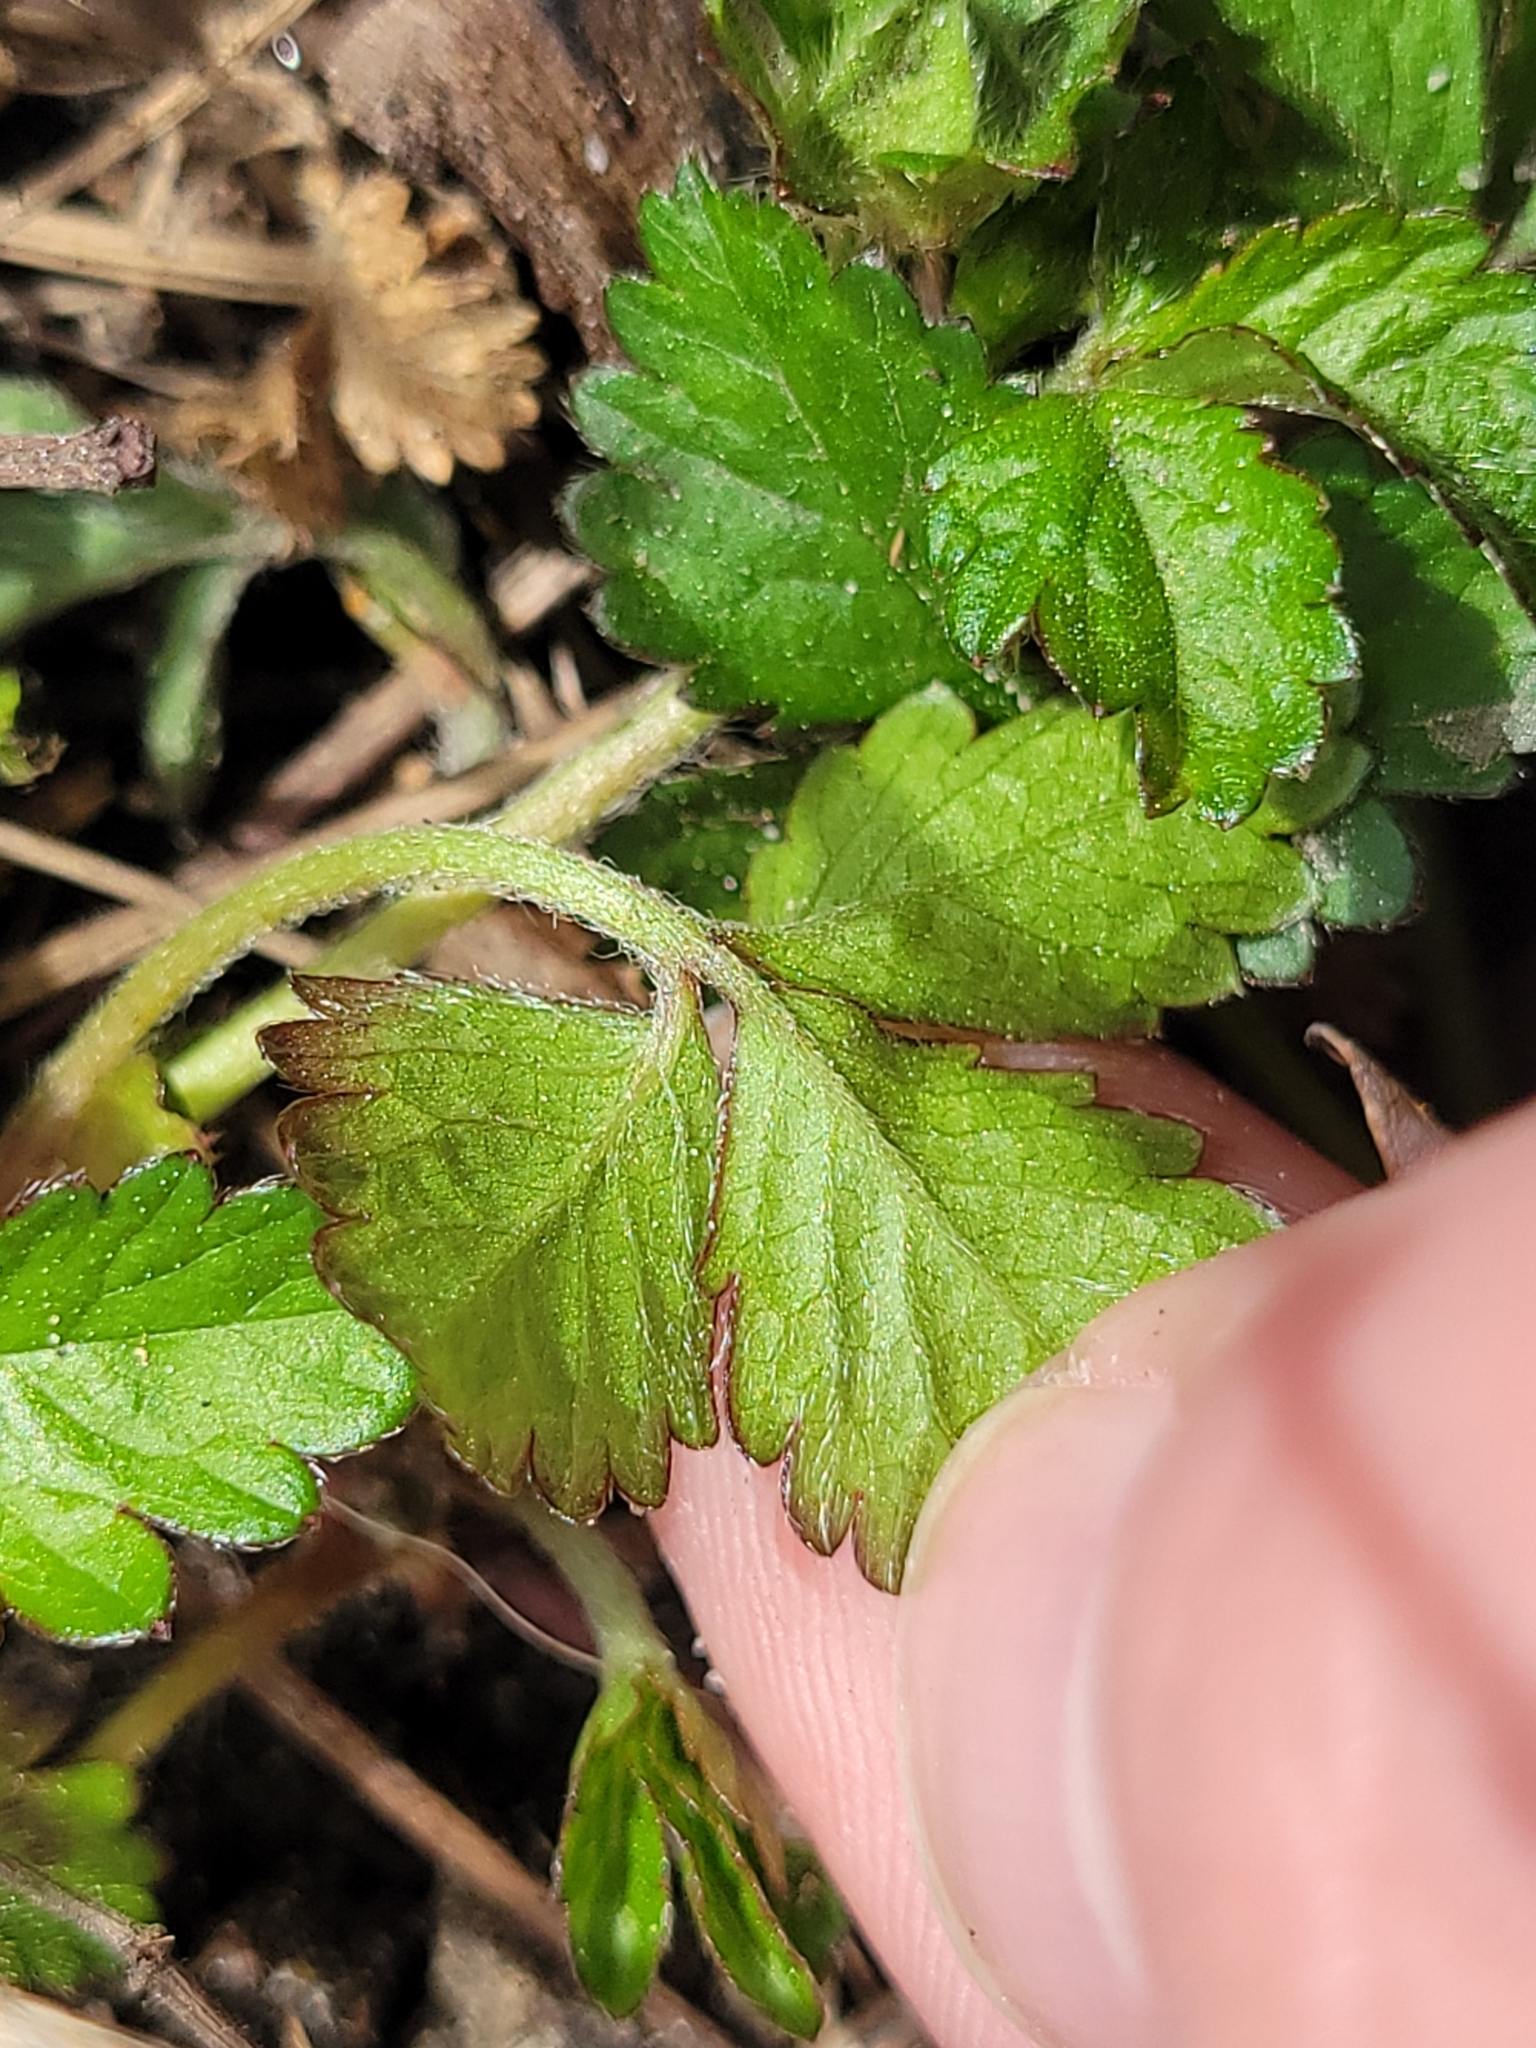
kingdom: Plantae
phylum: Tracheophyta
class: Magnoliopsida
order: Rosales
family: Rosaceae
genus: Potentilla
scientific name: Potentilla indica
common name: Yellow-flowered strawberry
